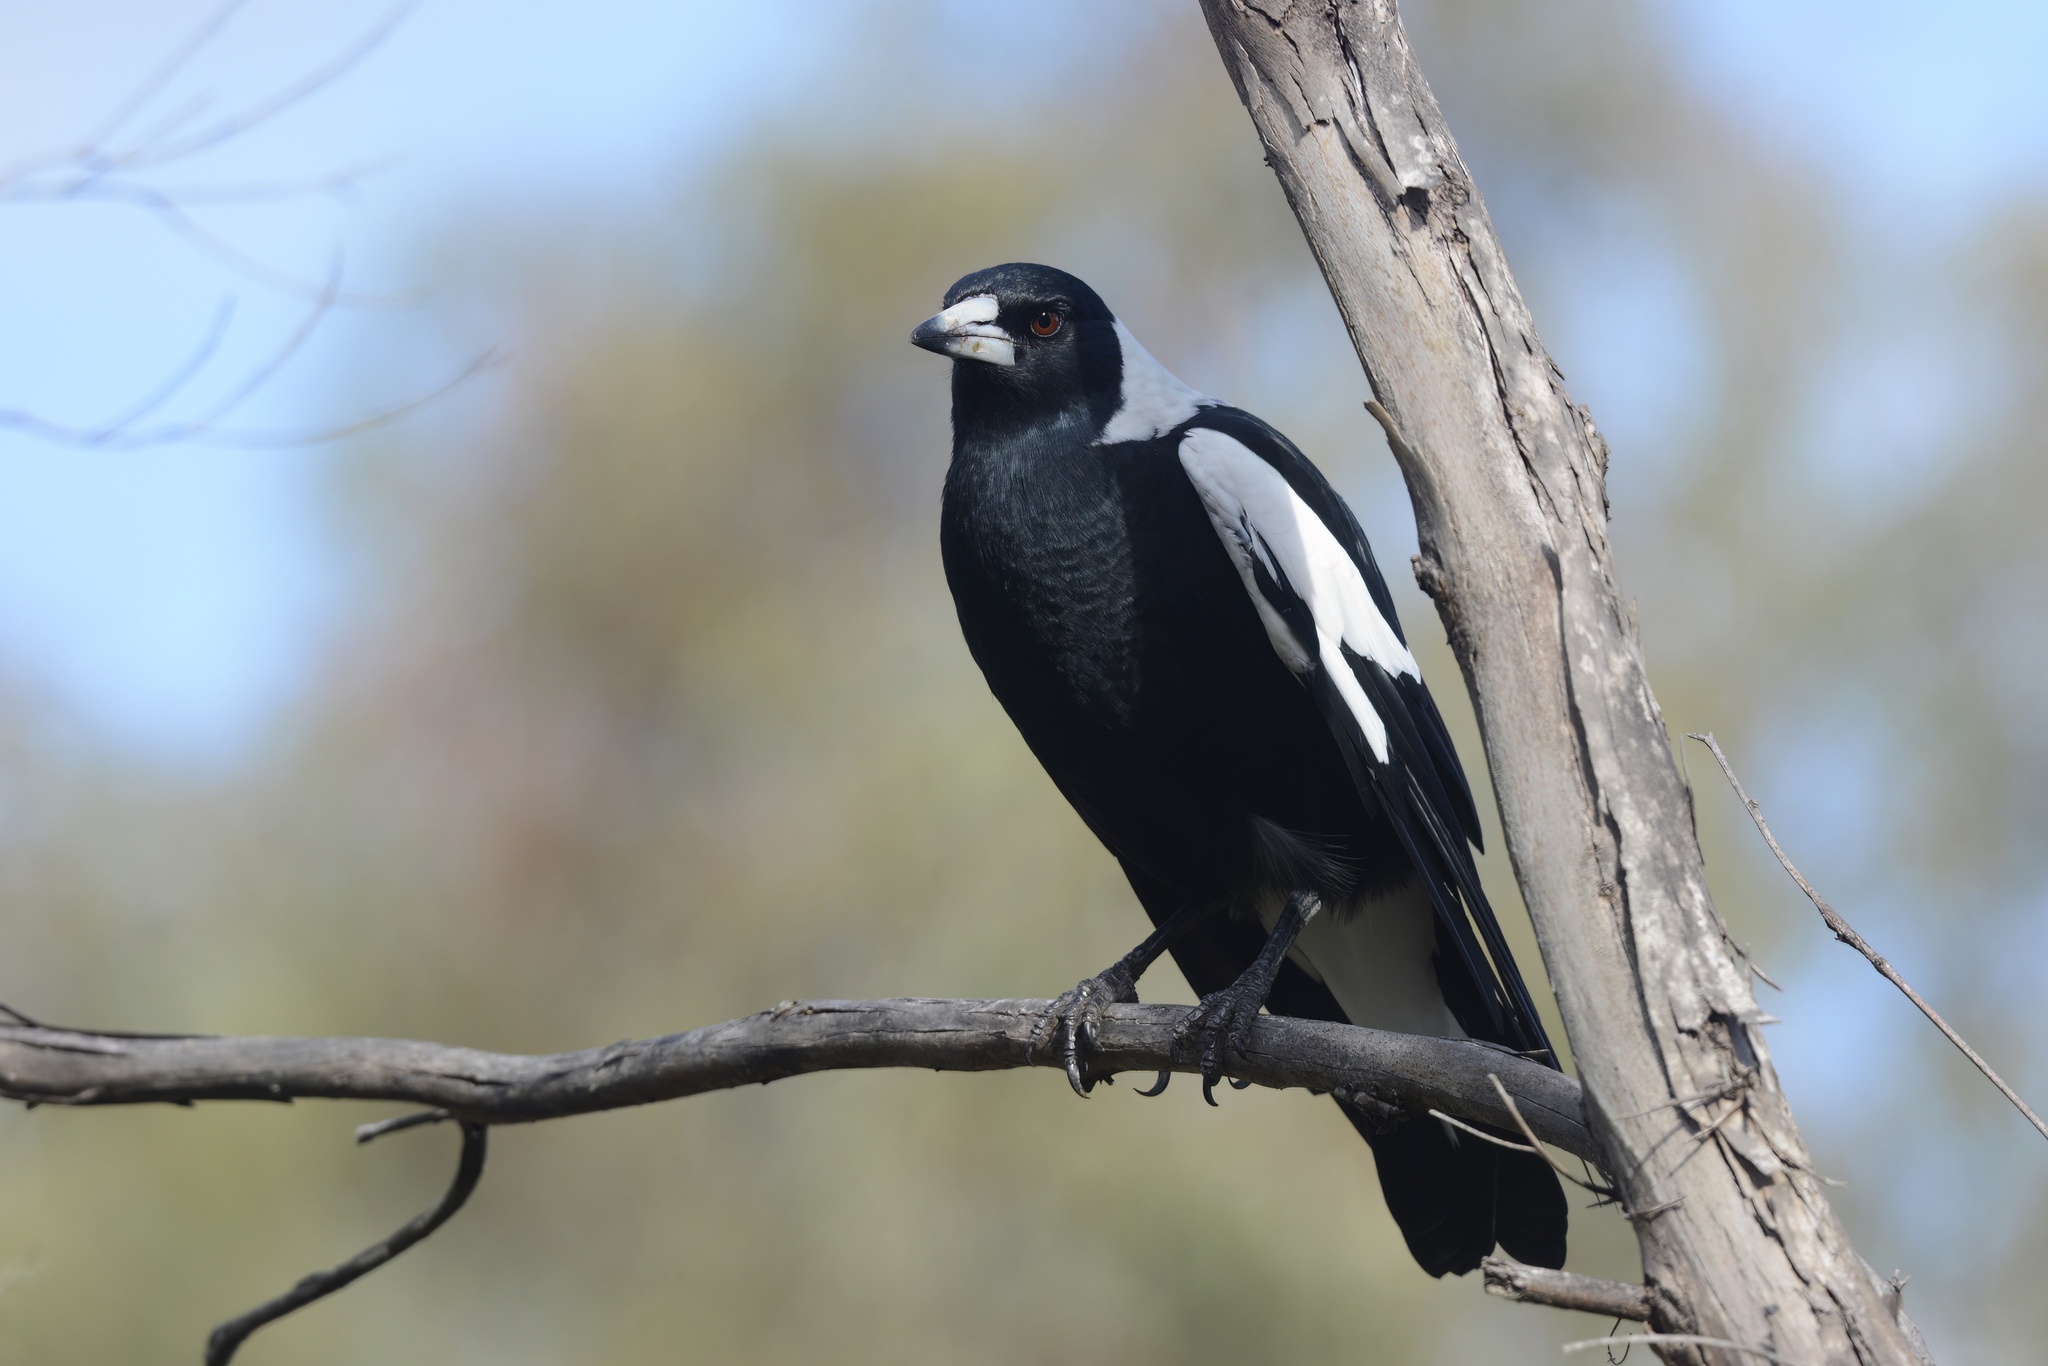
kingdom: Animalia
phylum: Chordata
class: Aves
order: Passeriformes
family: Cracticidae
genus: Gymnorhina
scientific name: Gymnorhina tibicen
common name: Australian magpie
